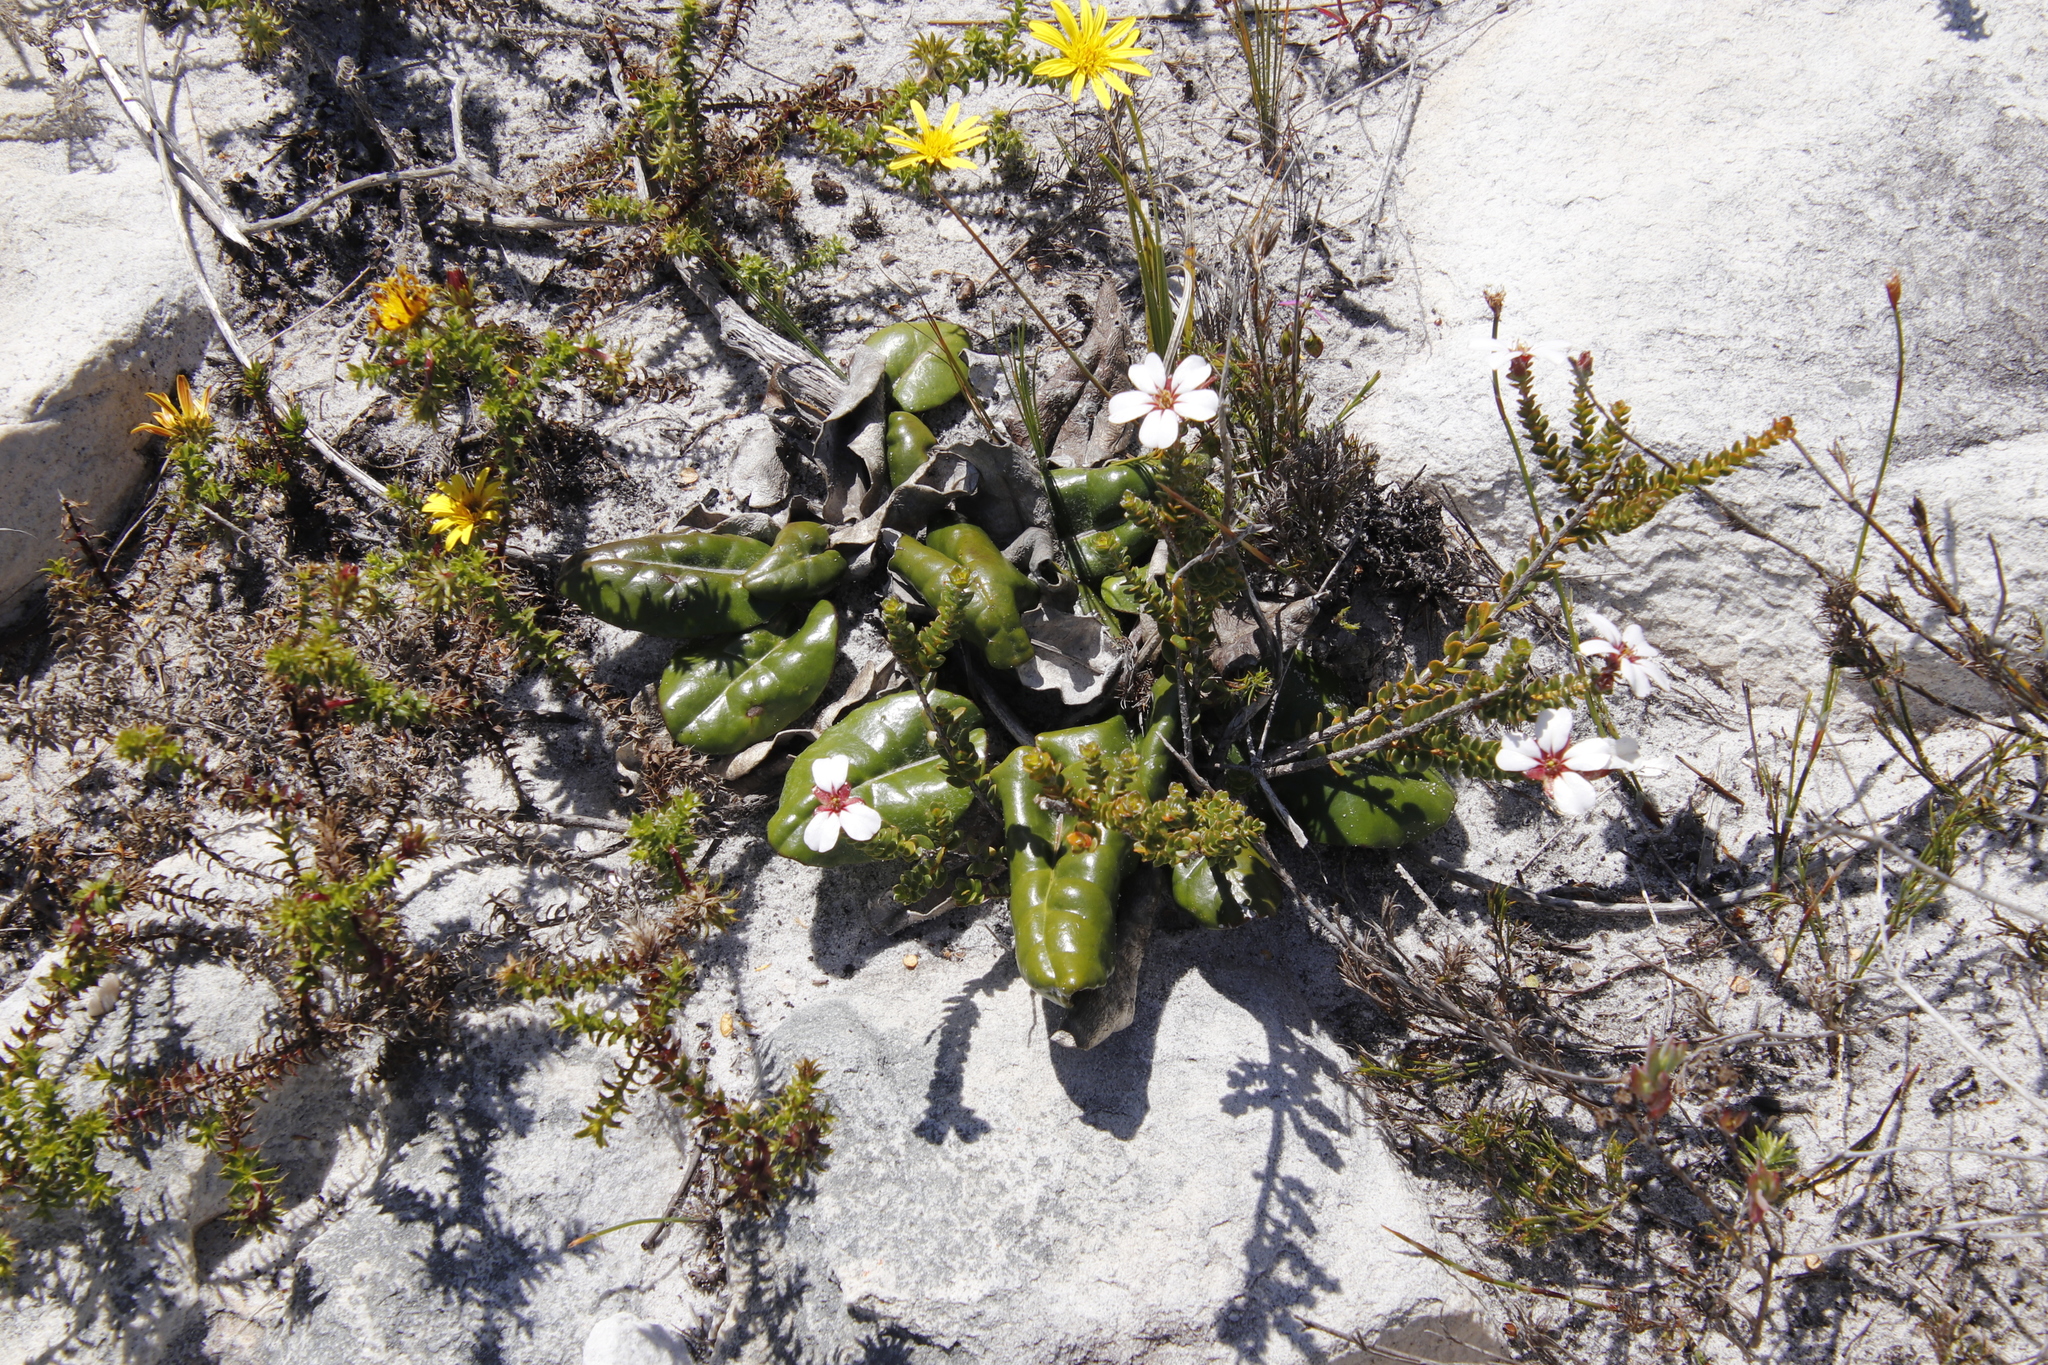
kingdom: Plantae
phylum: Tracheophyta
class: Magnoliopsida
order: Asterales
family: Asteraceae
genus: Gerbera
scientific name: Gerbera crocea
